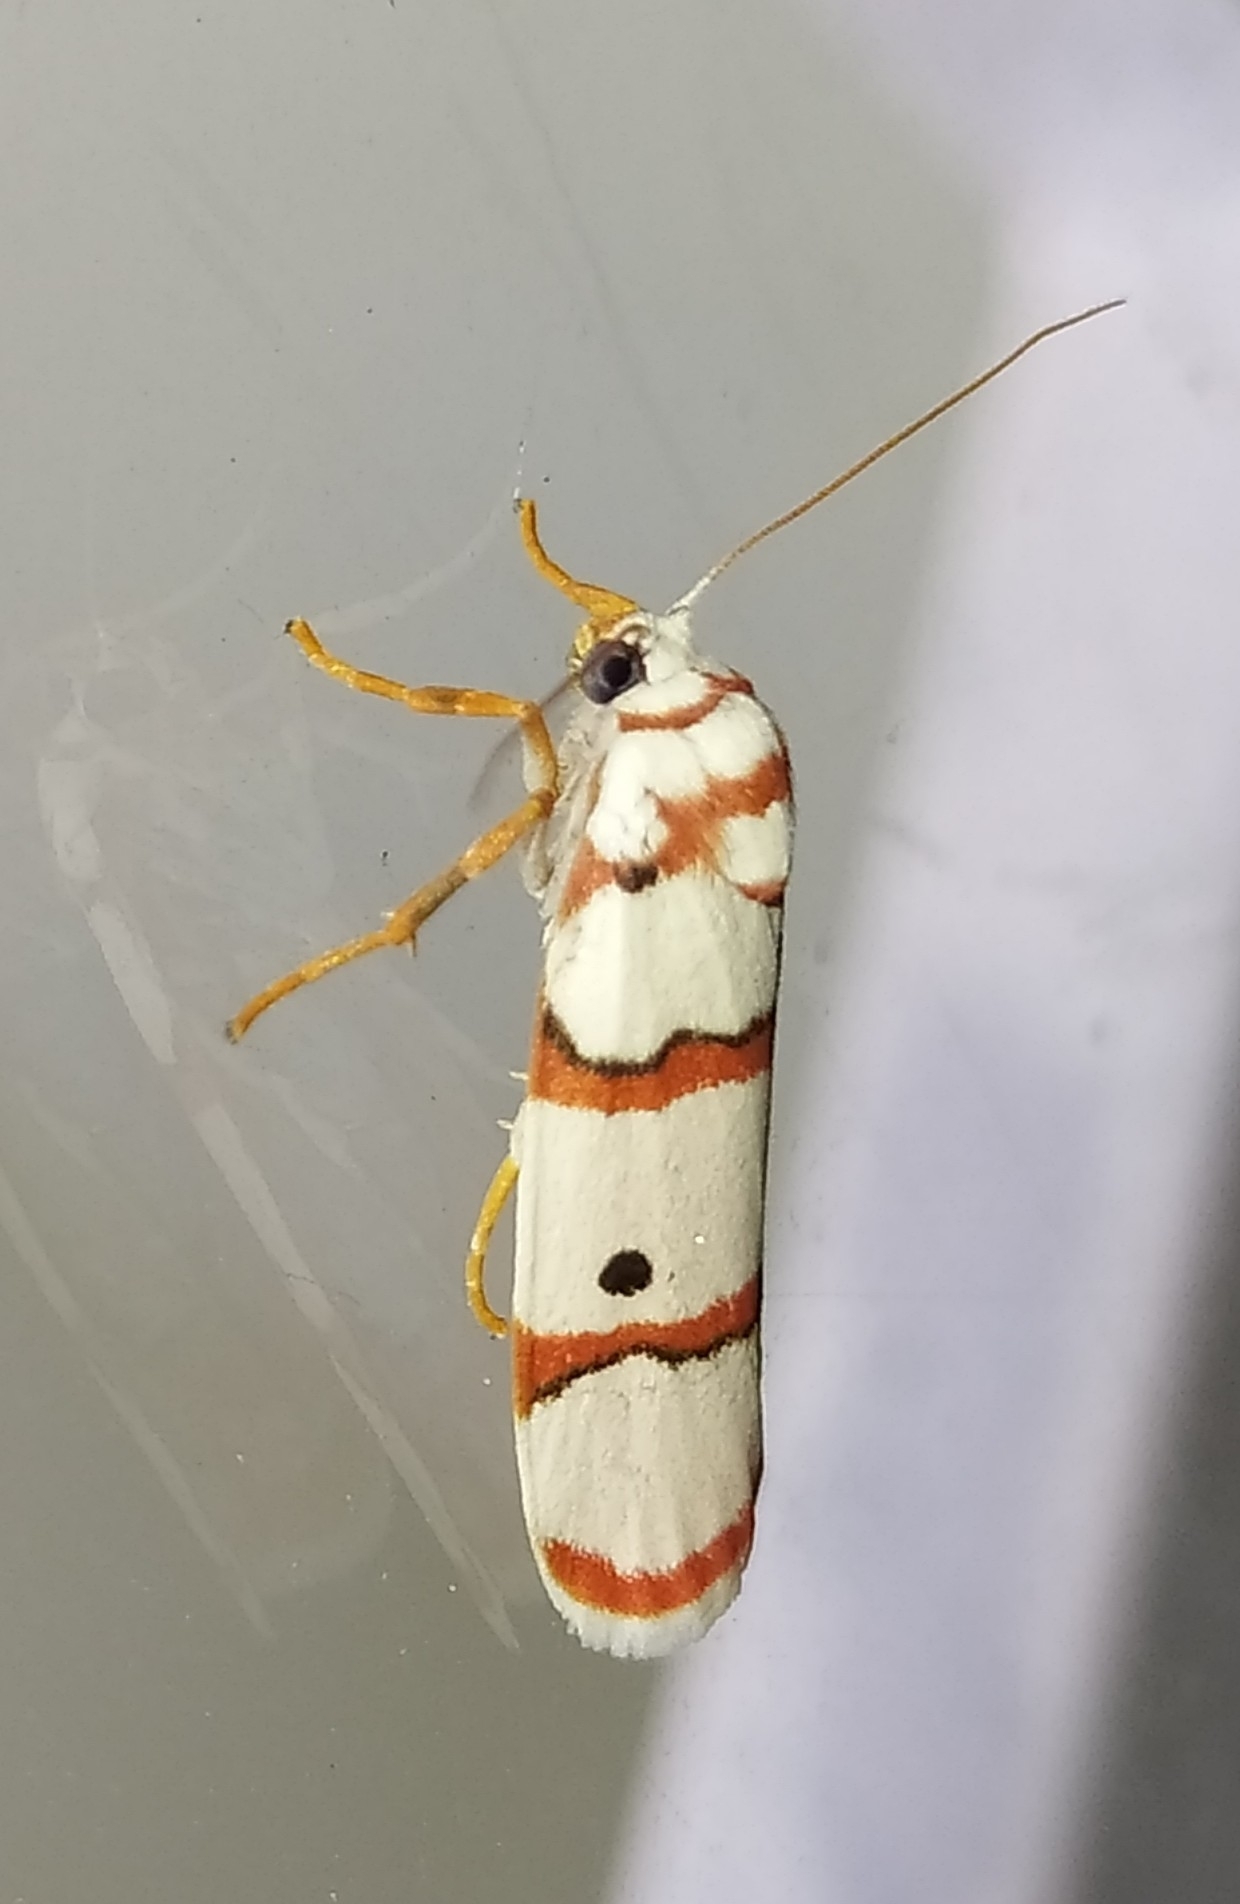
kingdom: Animalia
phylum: Arthropoda
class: Insecta
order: Lepidoptera
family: Erebidae
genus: Cyana
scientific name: Cyana peregrina
